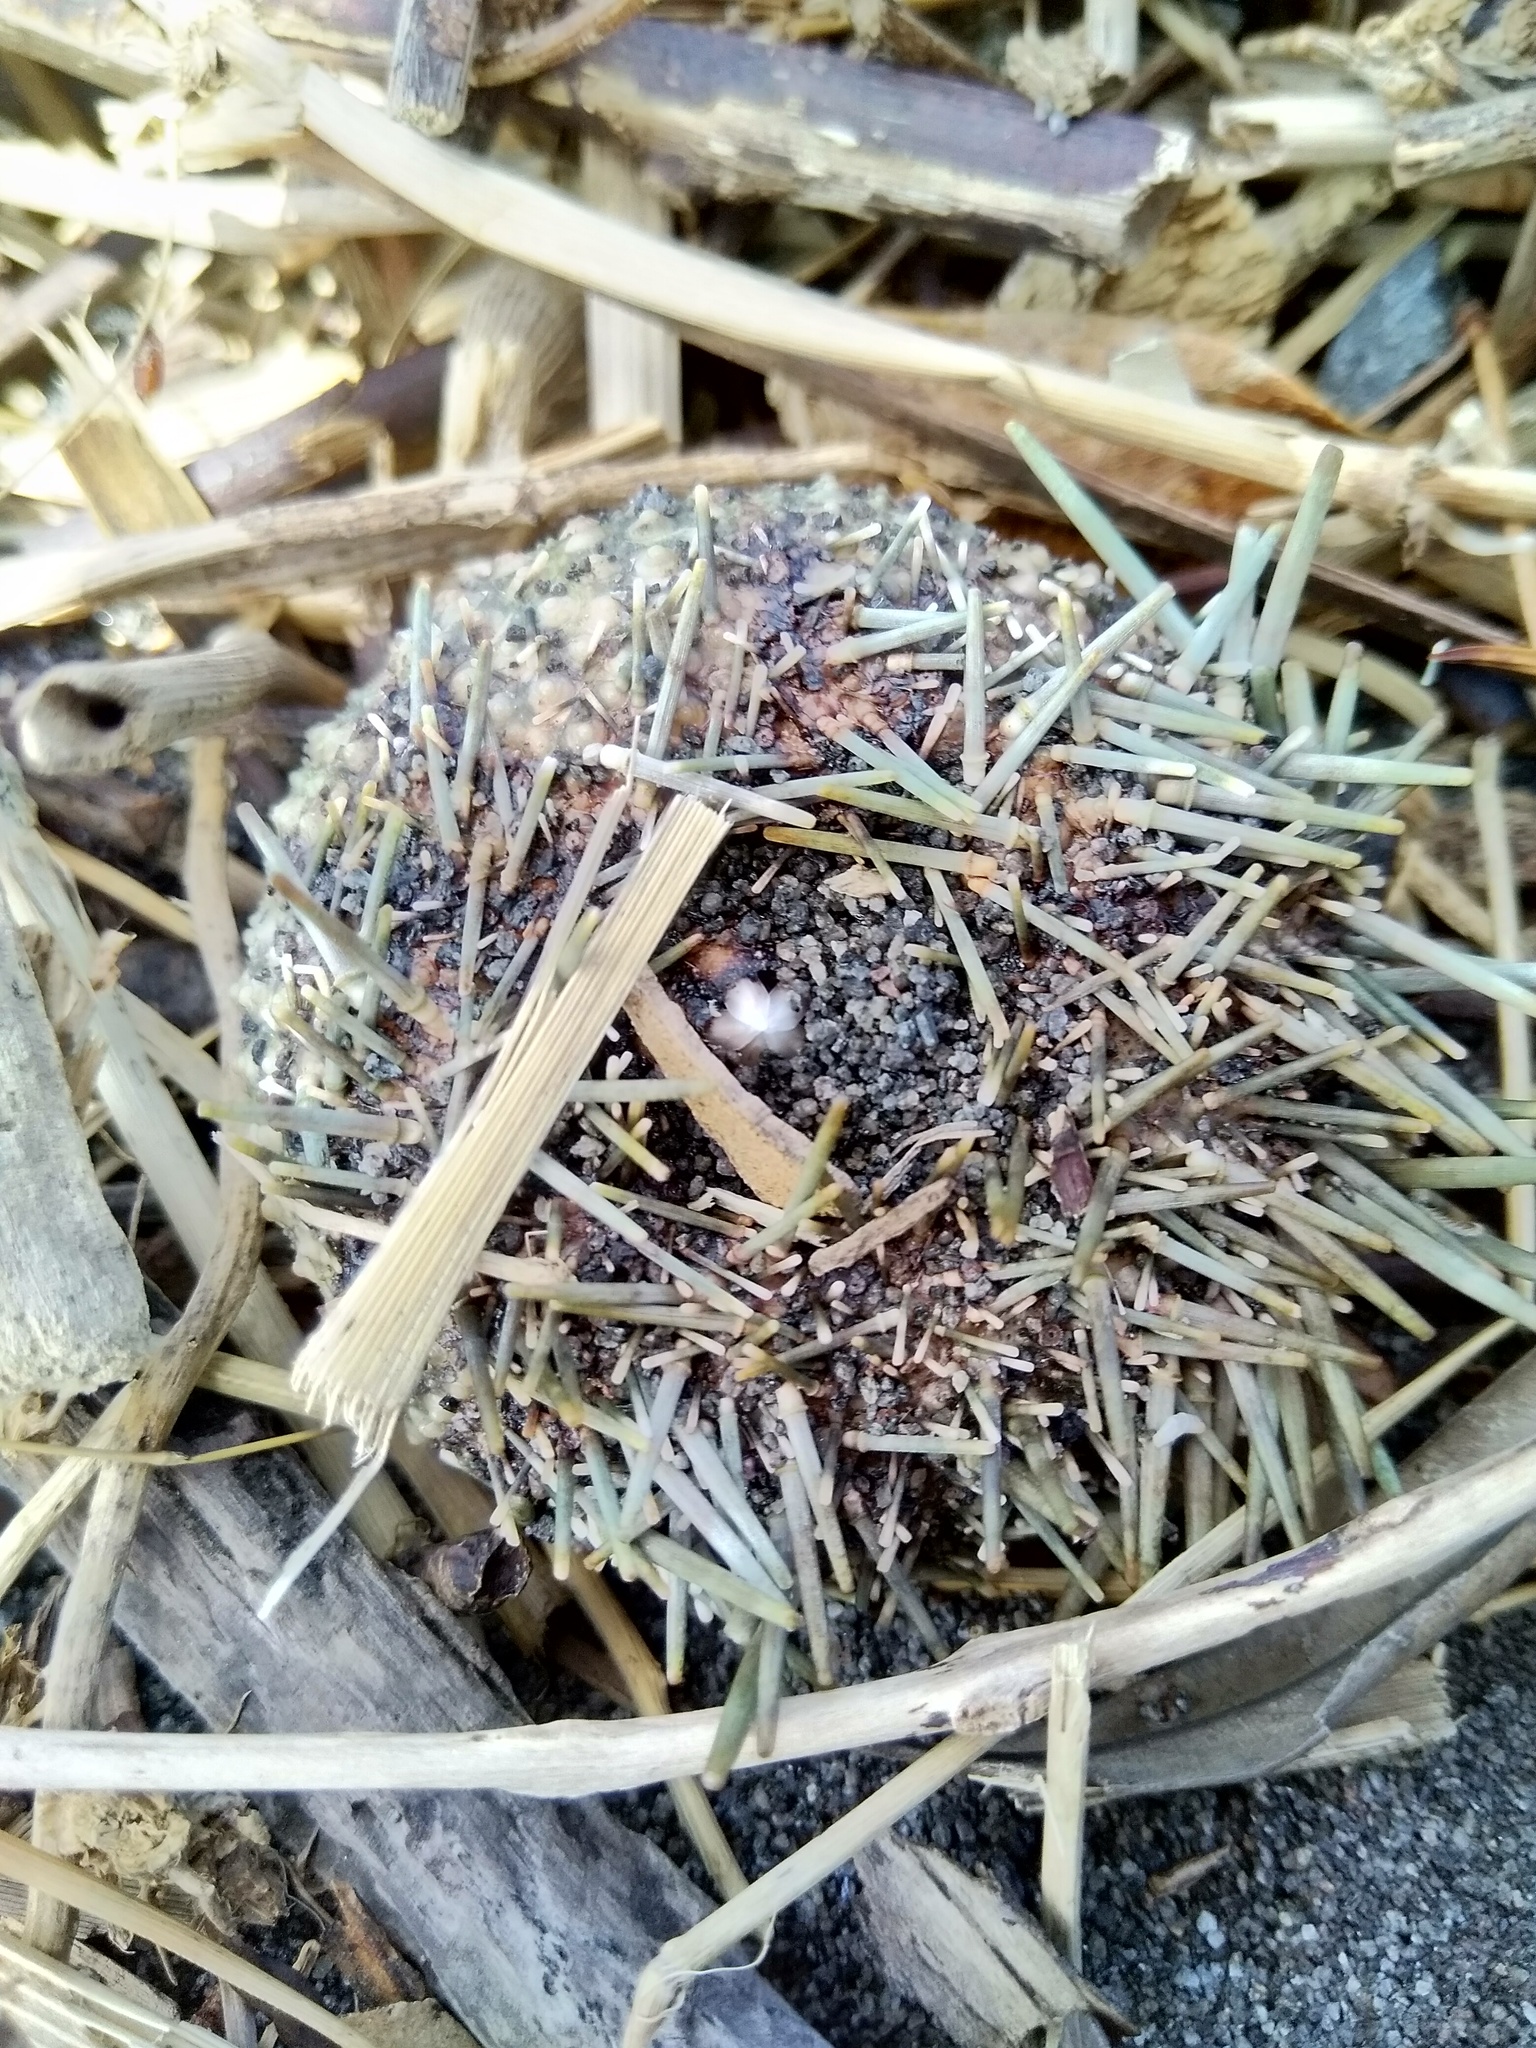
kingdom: Animalia
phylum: Echinodermata
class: Echinoidea
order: Camarodonta
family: Echinometridae
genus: Evechinus
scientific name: Evechinus chloroticus
